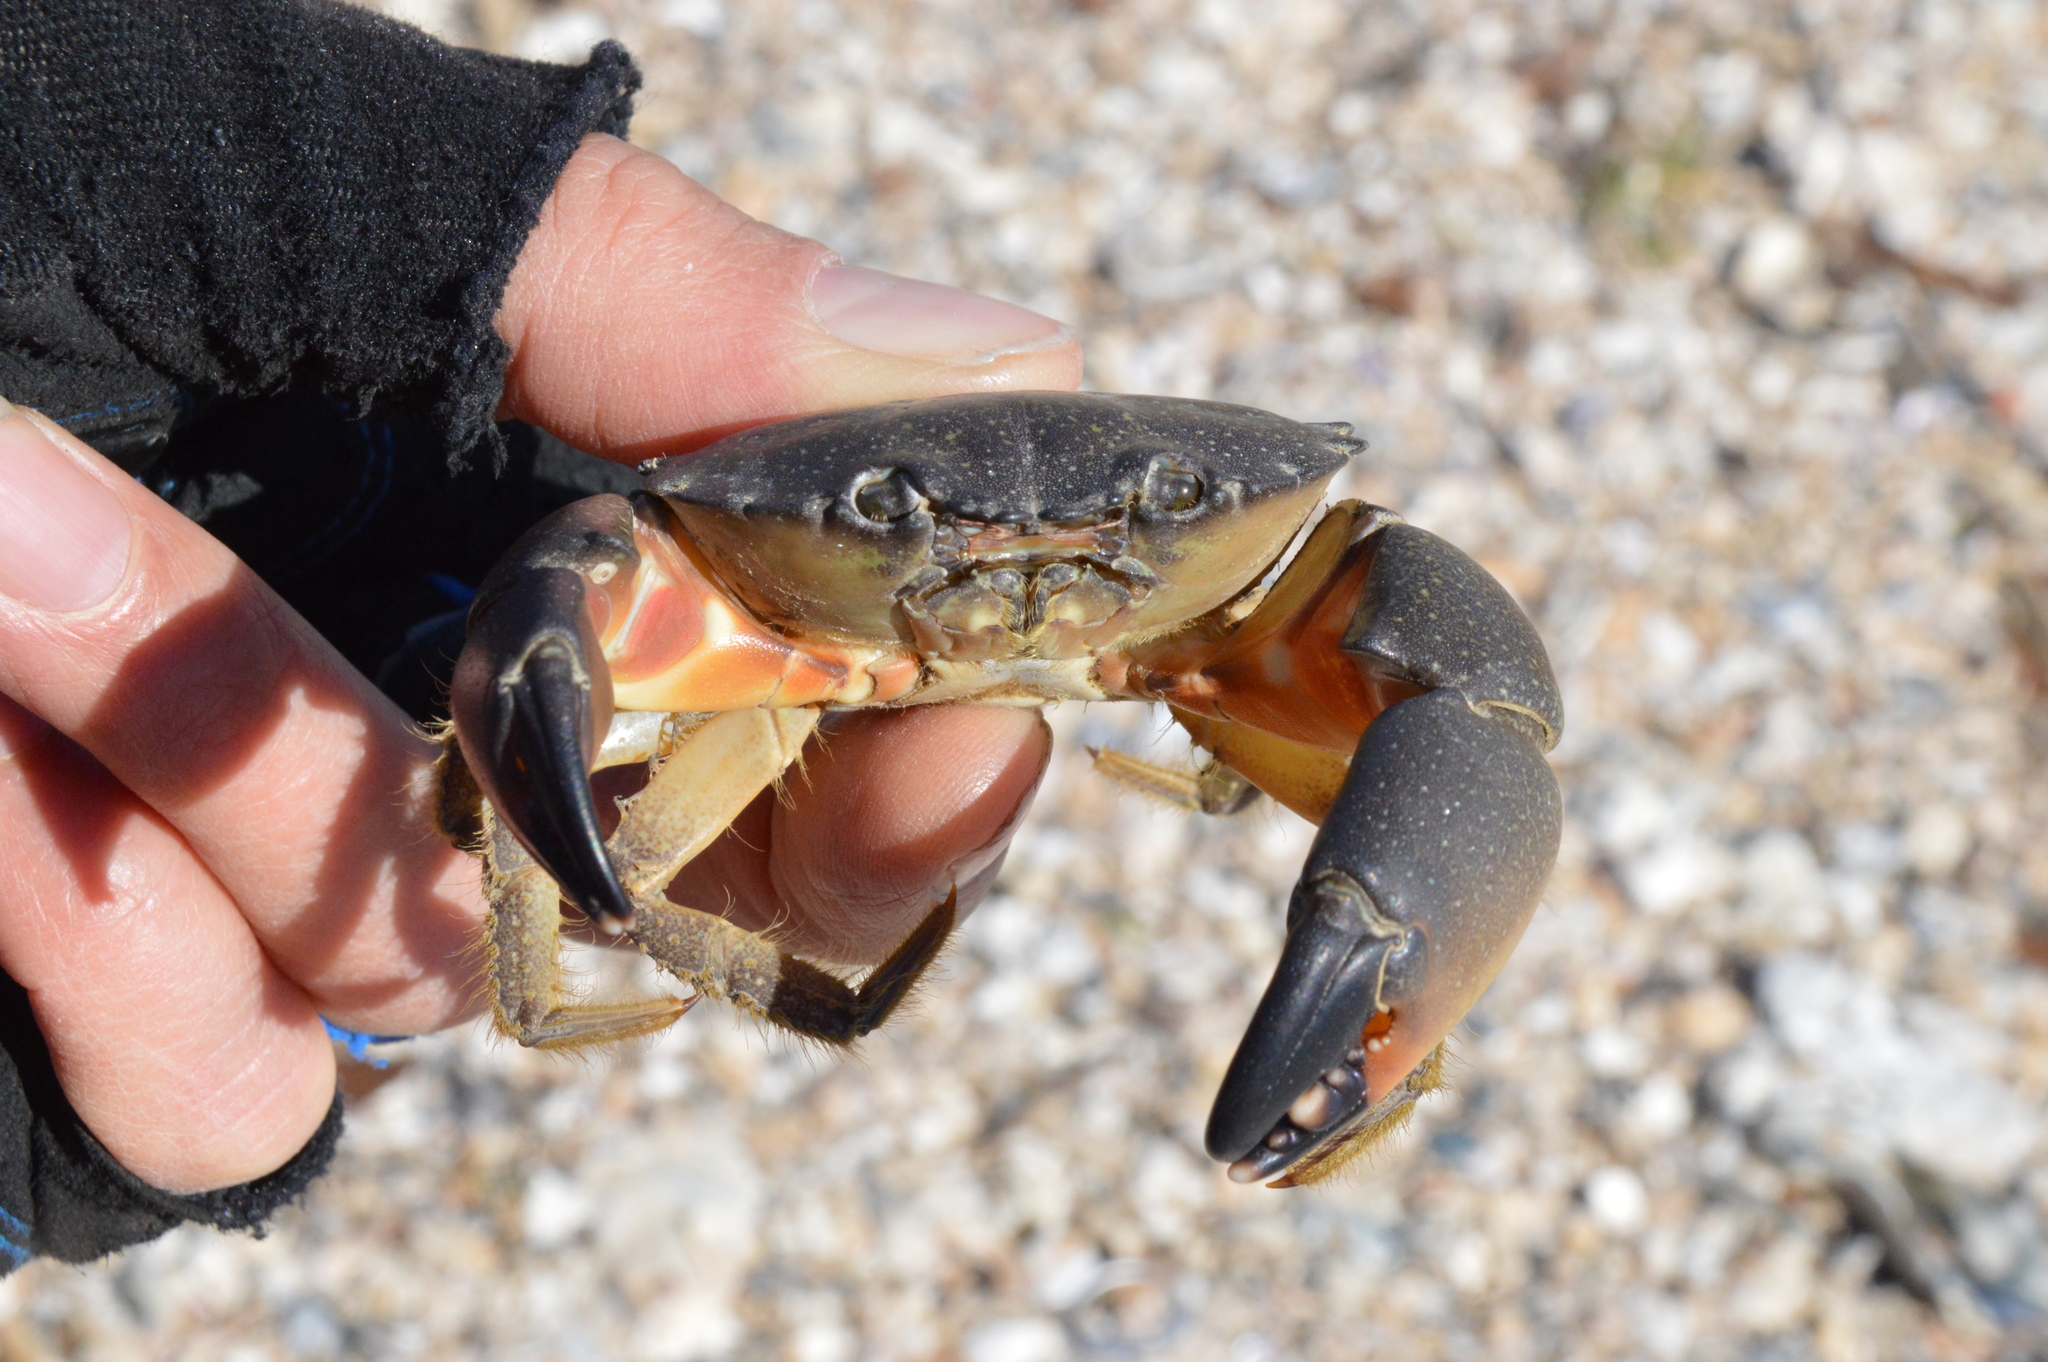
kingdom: Animalia
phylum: Arthropoda
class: Malacostraca
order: Decapoda
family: Menippidae
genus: Menippe
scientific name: Menippe adina
